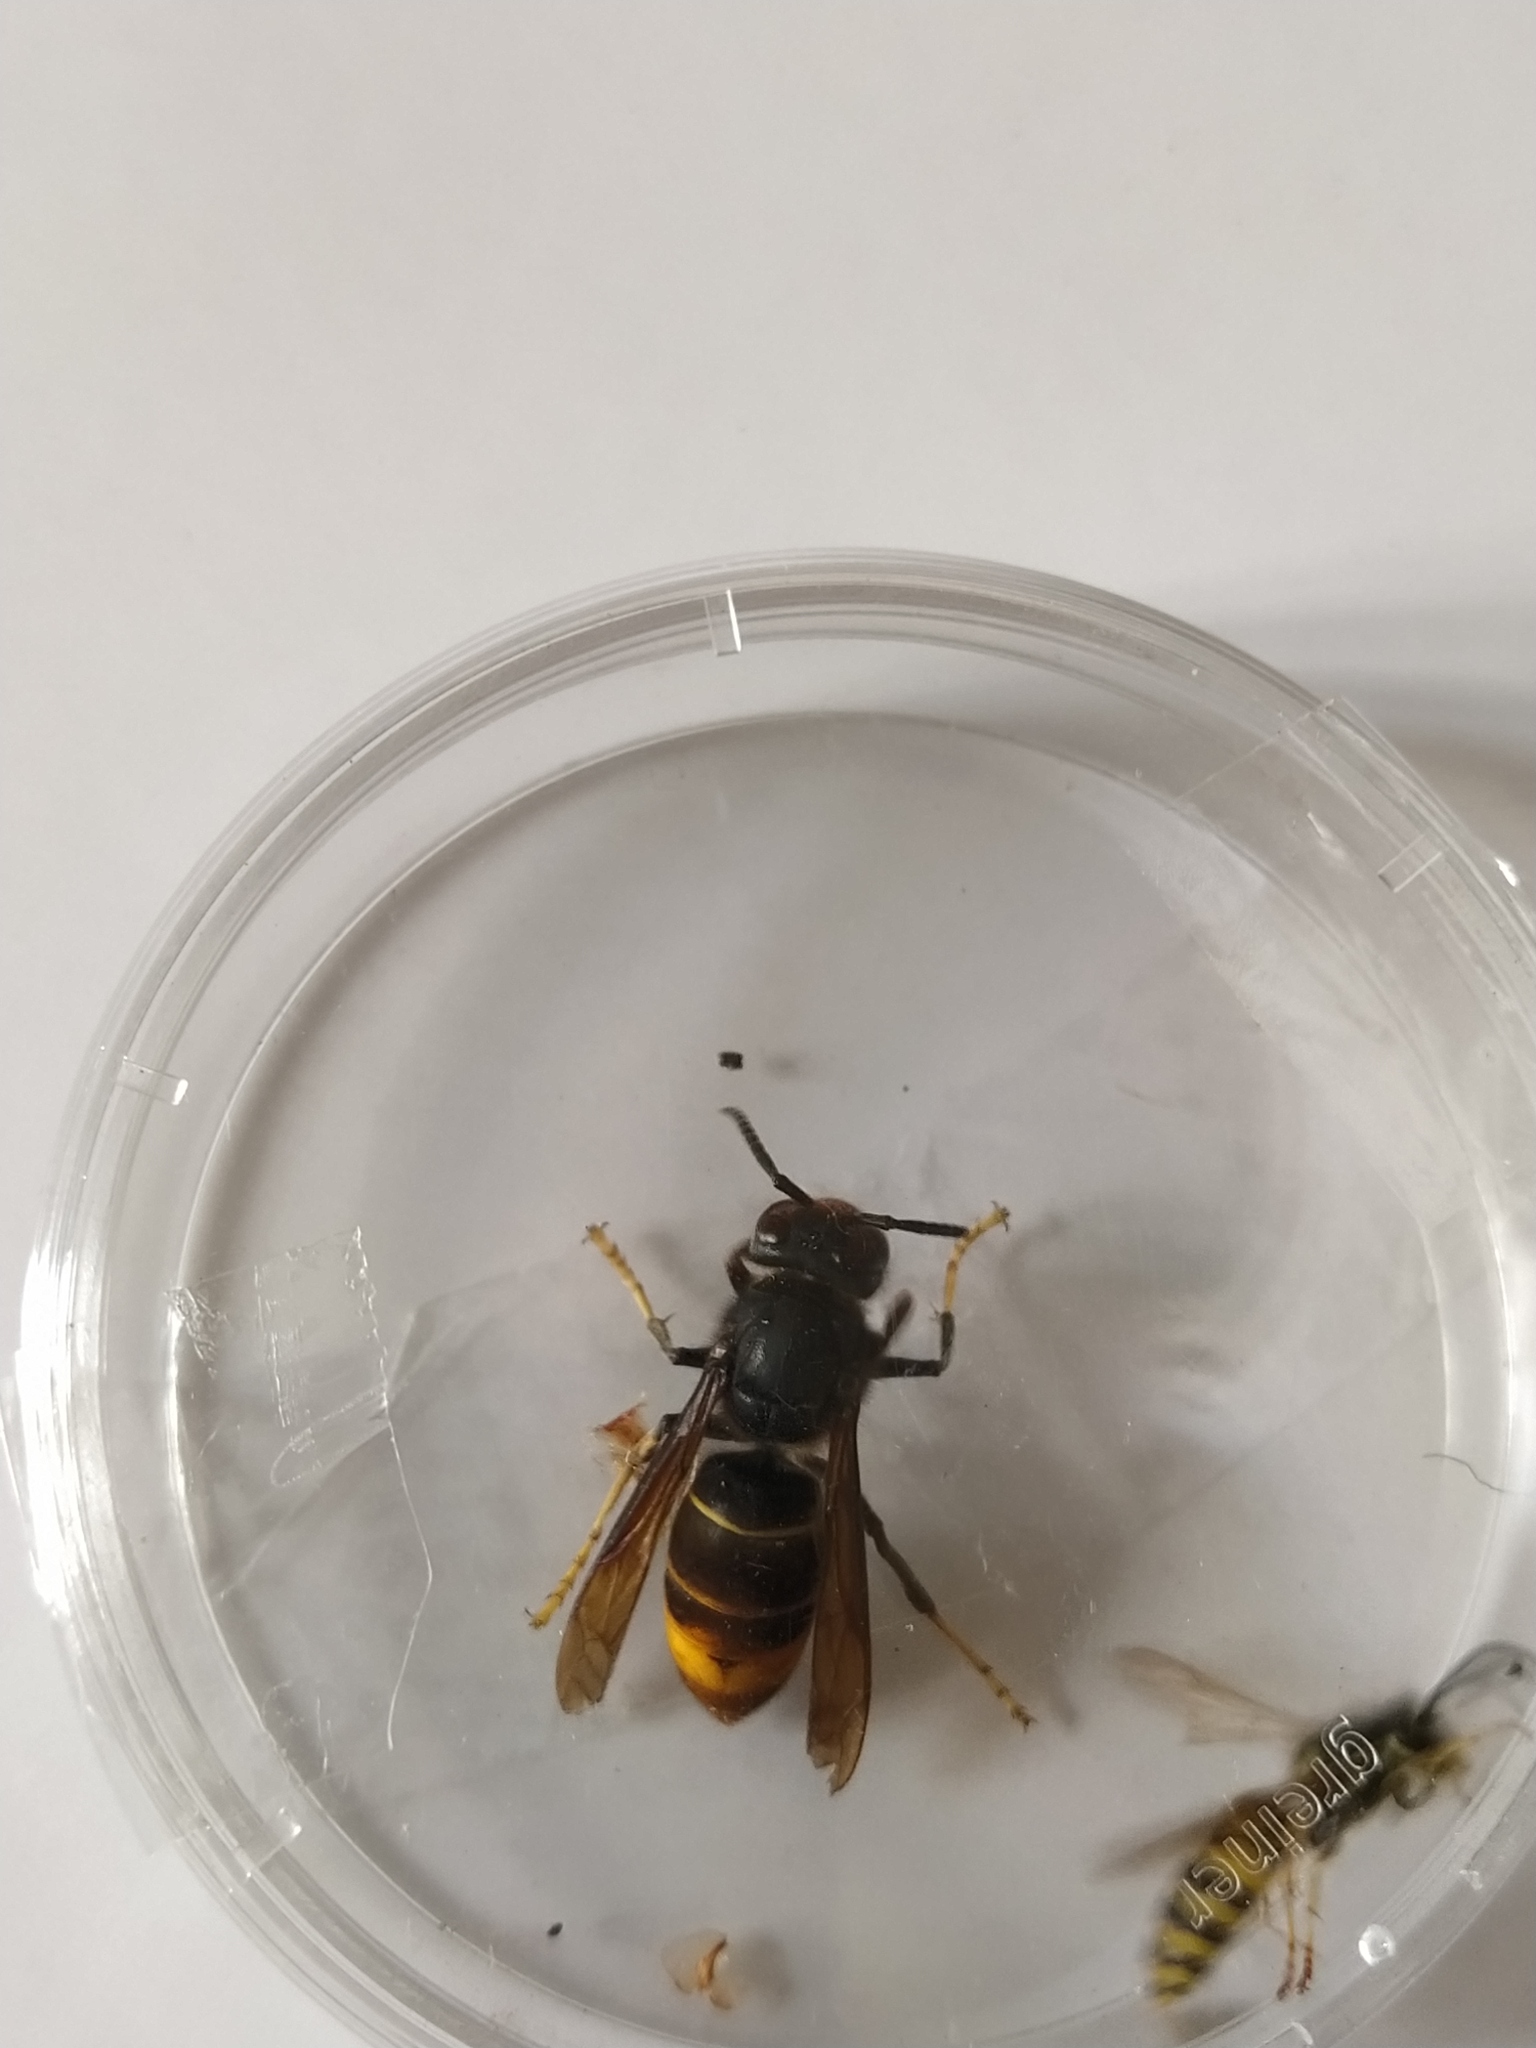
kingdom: Animalia
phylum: Arthropoda
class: Insecta
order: Hymenoptera
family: Vespidae
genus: Vespa
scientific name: Vespa velutina
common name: Asian hornet
